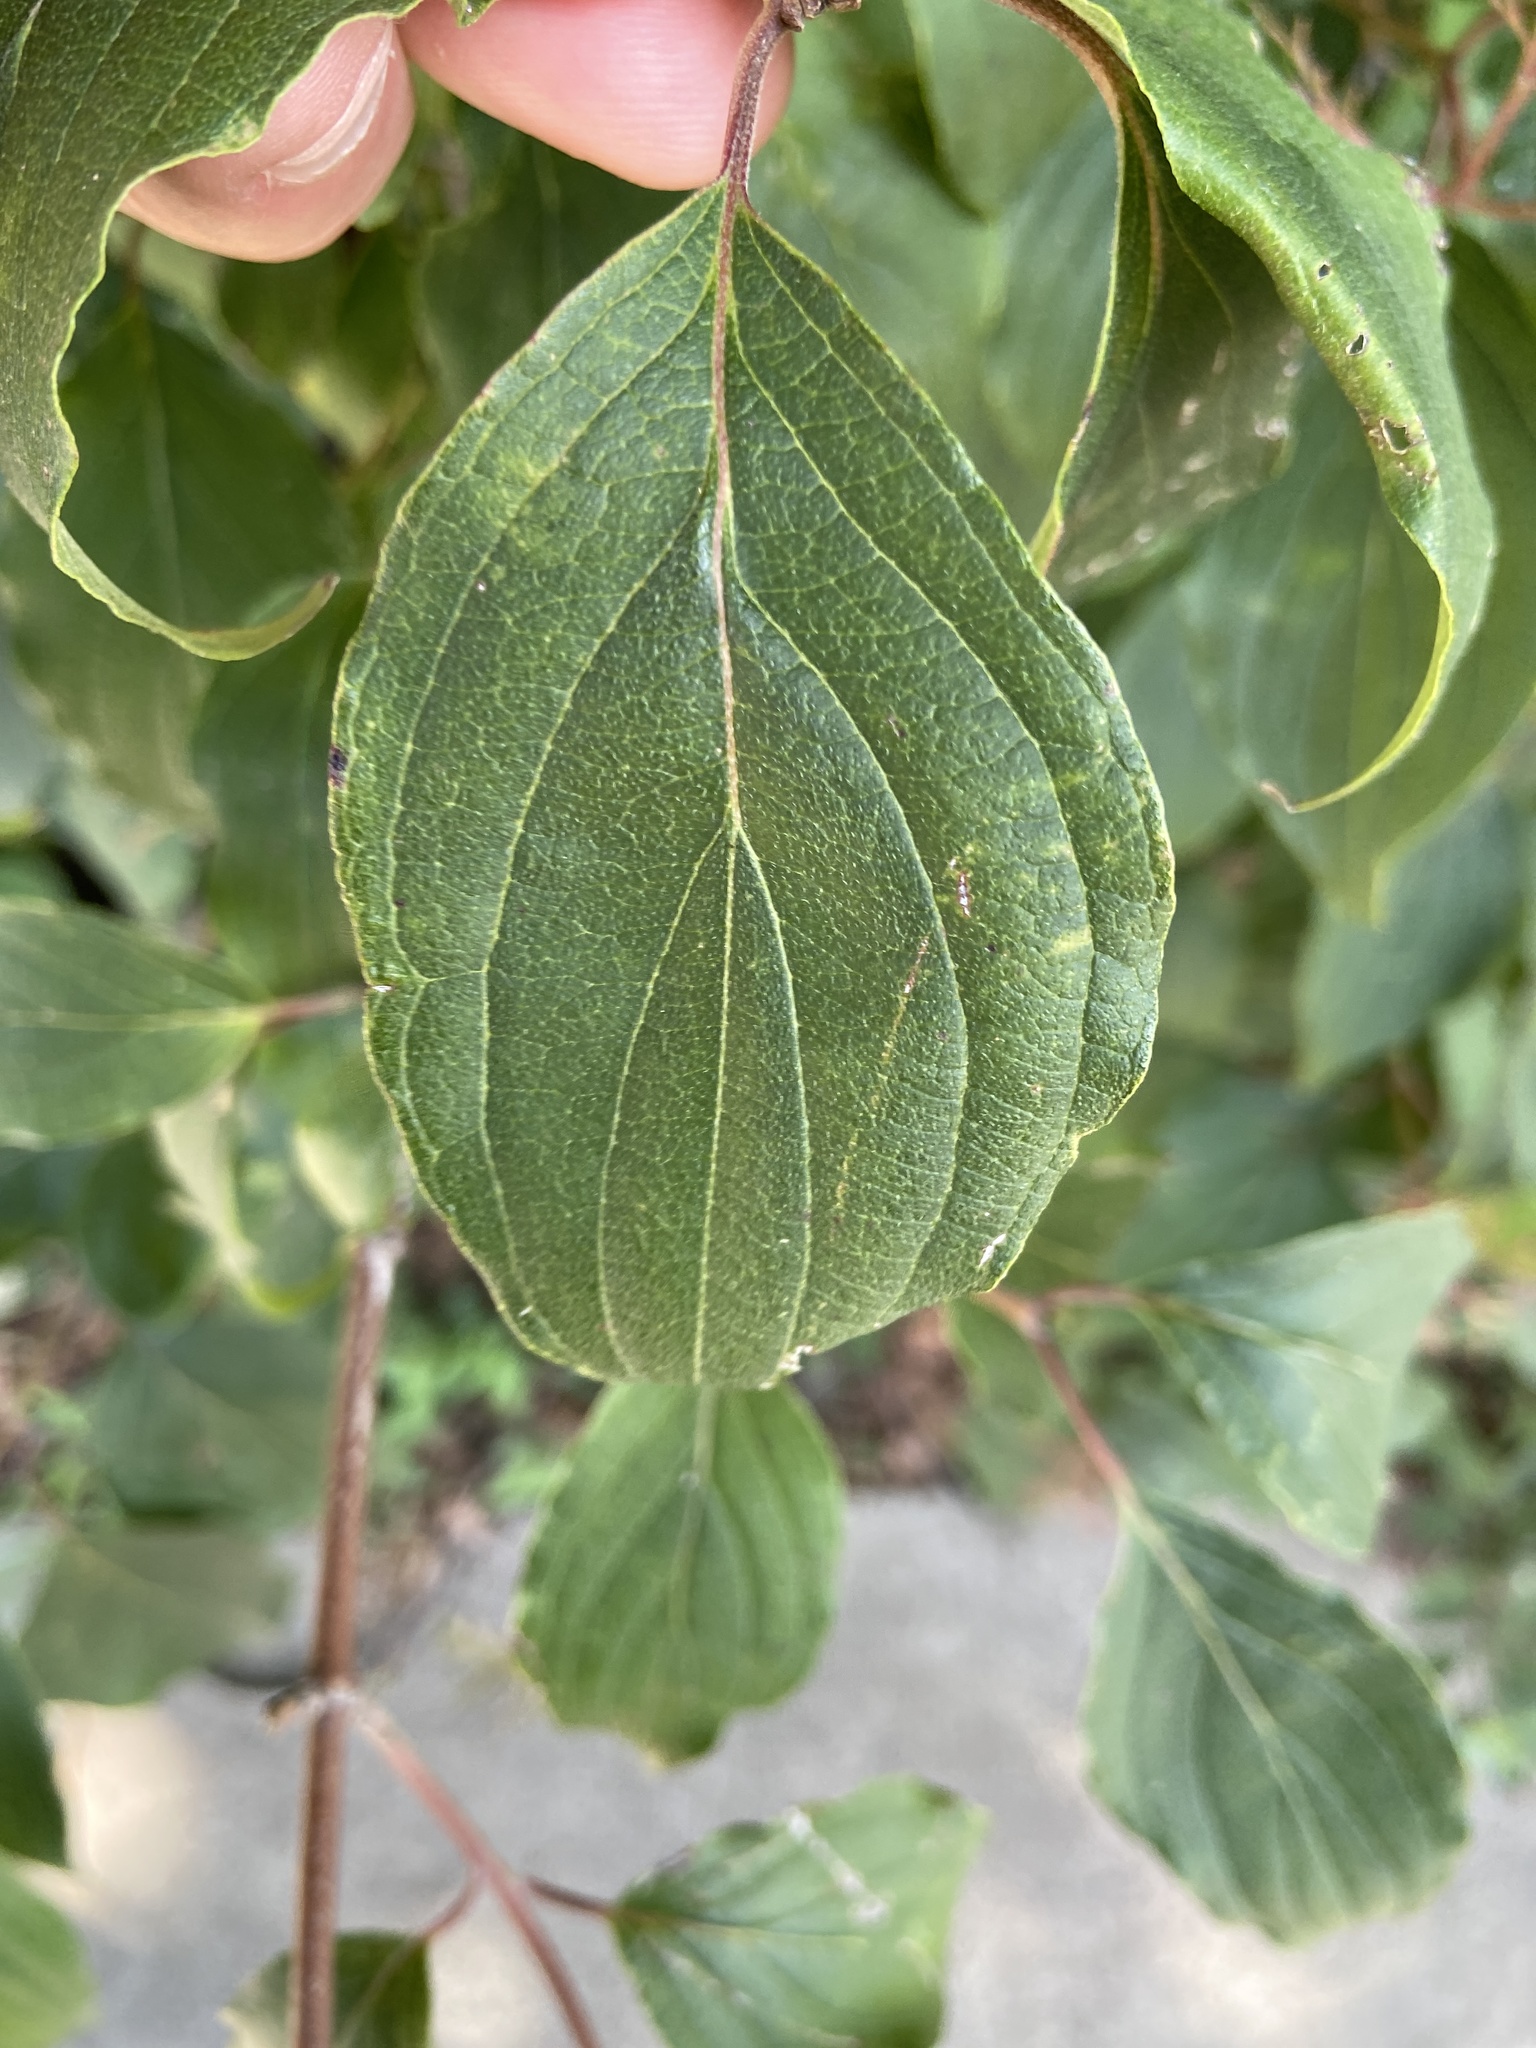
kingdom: Plantae
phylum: Tracheophyta
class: Magnoliopsida
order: Cornales
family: Cornaceae
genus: Cornus
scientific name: Cornus drummondii
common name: Rough-leaf dogwood
